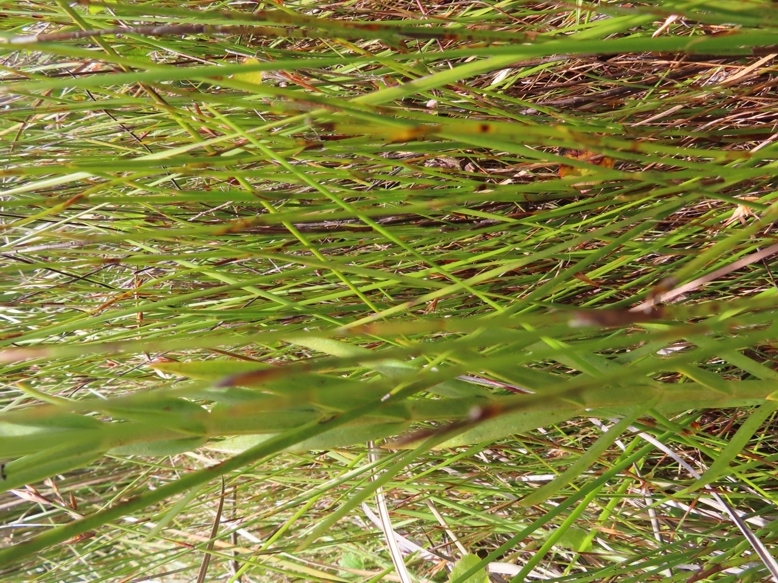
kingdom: Plantae
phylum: Tracheophyta
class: Magnoliopsida
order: Gentianales
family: Gentianaceae
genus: Chironia
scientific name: Chironia jasminoides
